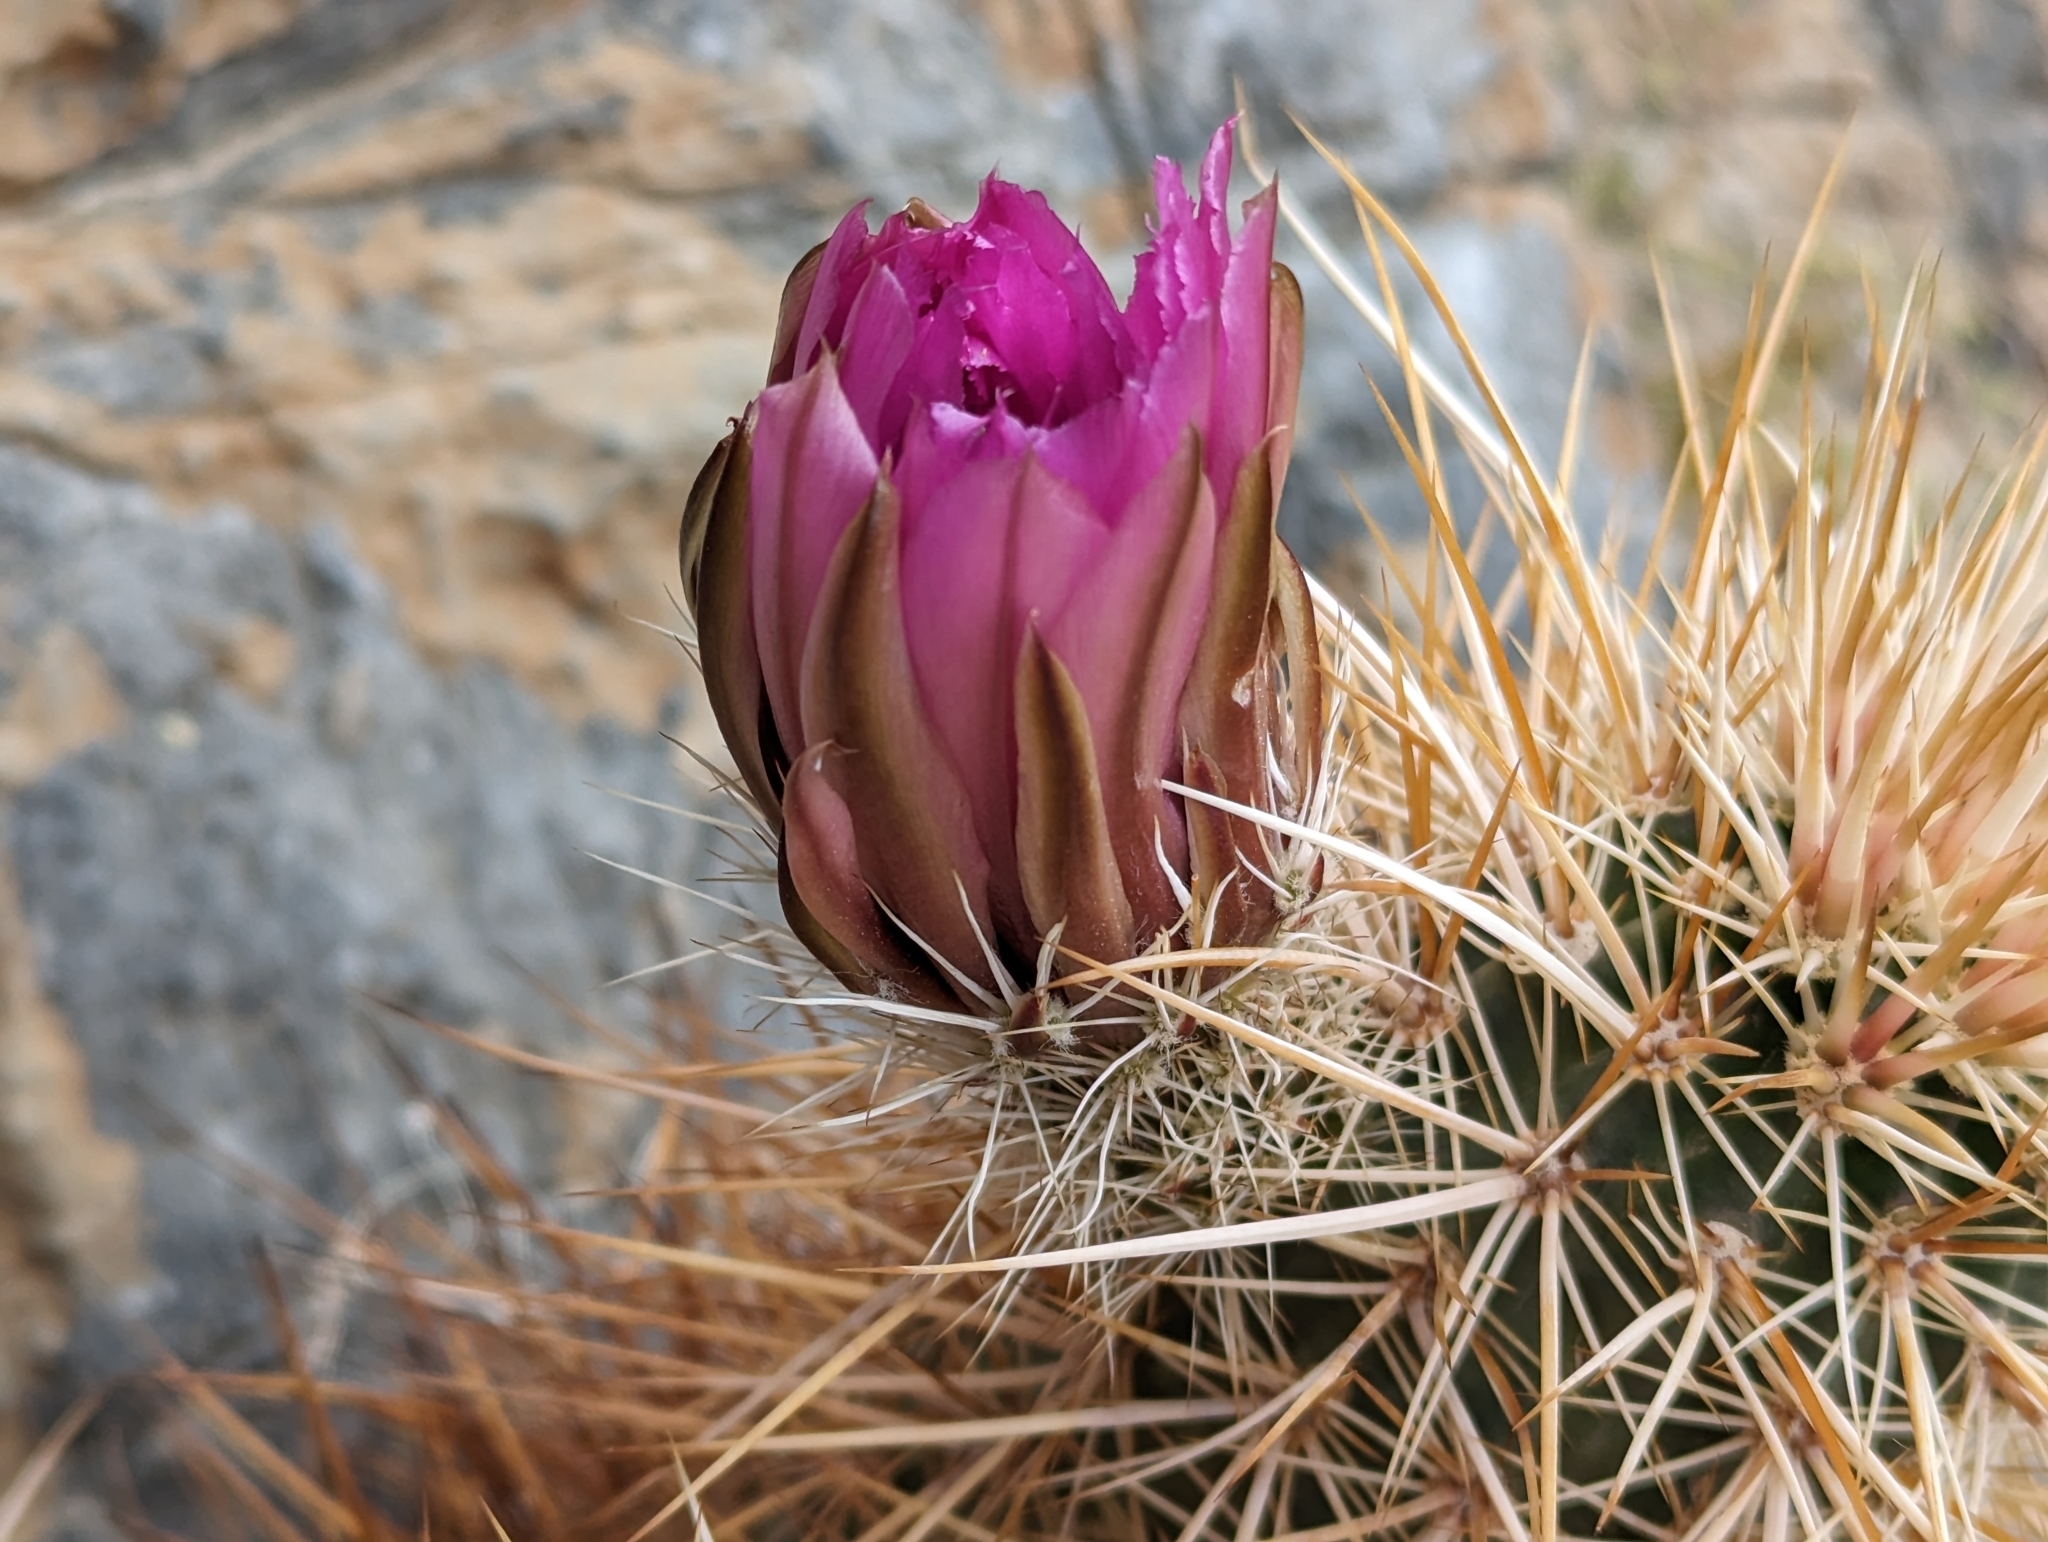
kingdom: Plantae
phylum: Tracheophyta
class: Magnoliopsida
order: Caryophyllales
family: Cactaceae
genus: Echinocereus
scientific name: Echinocereus engelmannii
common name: Engelmann's hedgehog cactus
